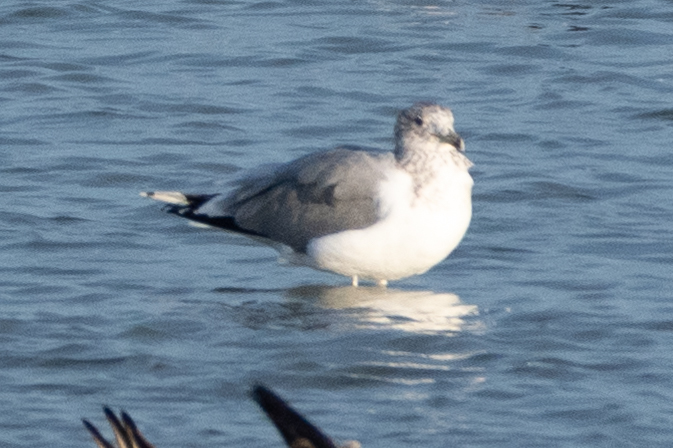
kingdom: Animalia
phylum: Chordata
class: Aves
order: Charadriiformes
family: Laridae
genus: Larus
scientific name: Larus californicus
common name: California gull
